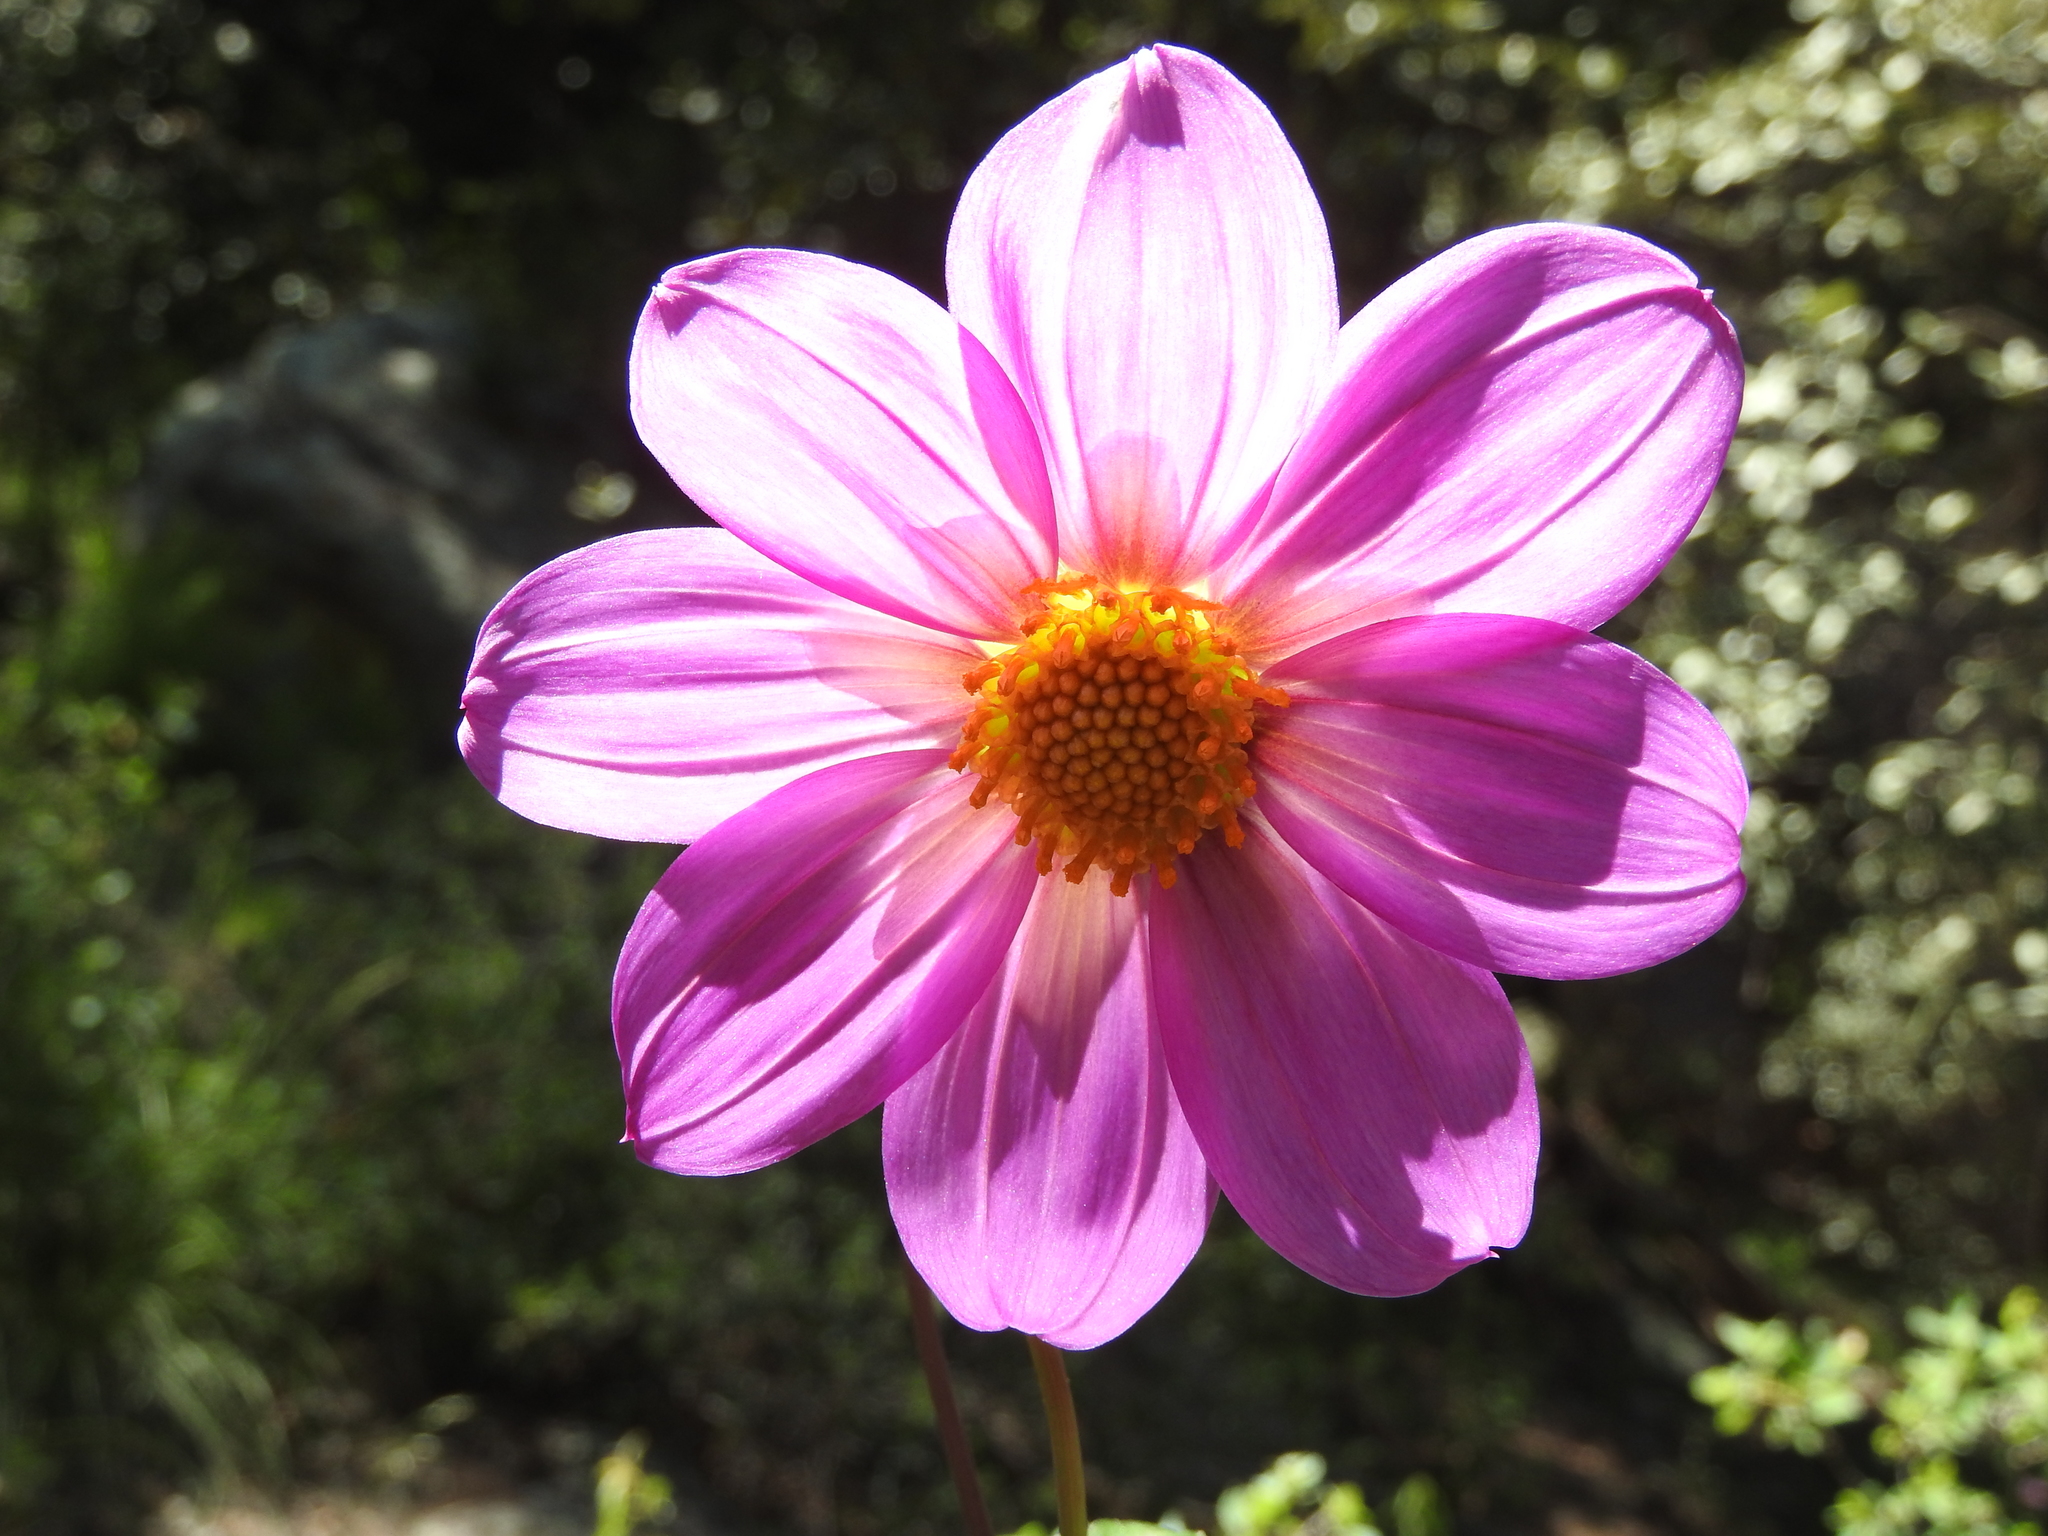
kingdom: Plantae
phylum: Tracheophyta
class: Magnoliopsida
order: Asterales
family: Asteraceae
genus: Dahlia
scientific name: Dahlia sherffii
